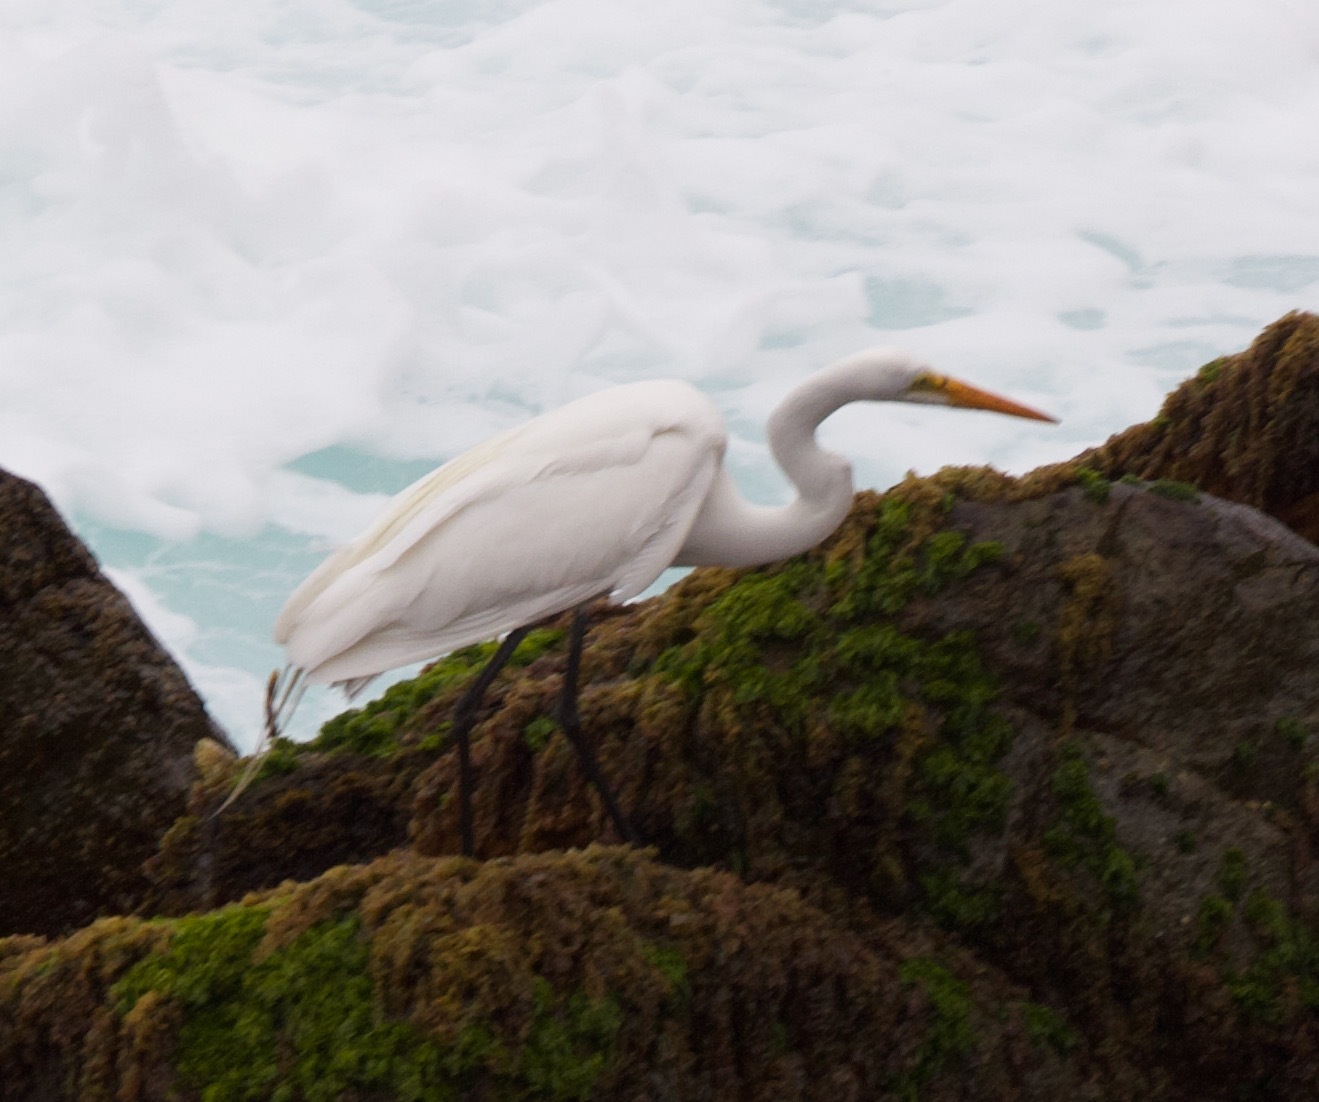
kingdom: Animalia
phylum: Chordata
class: Aves
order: Pelecaniformes
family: Ardeidae
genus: Ardea
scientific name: Ardea alba
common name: Great egret
